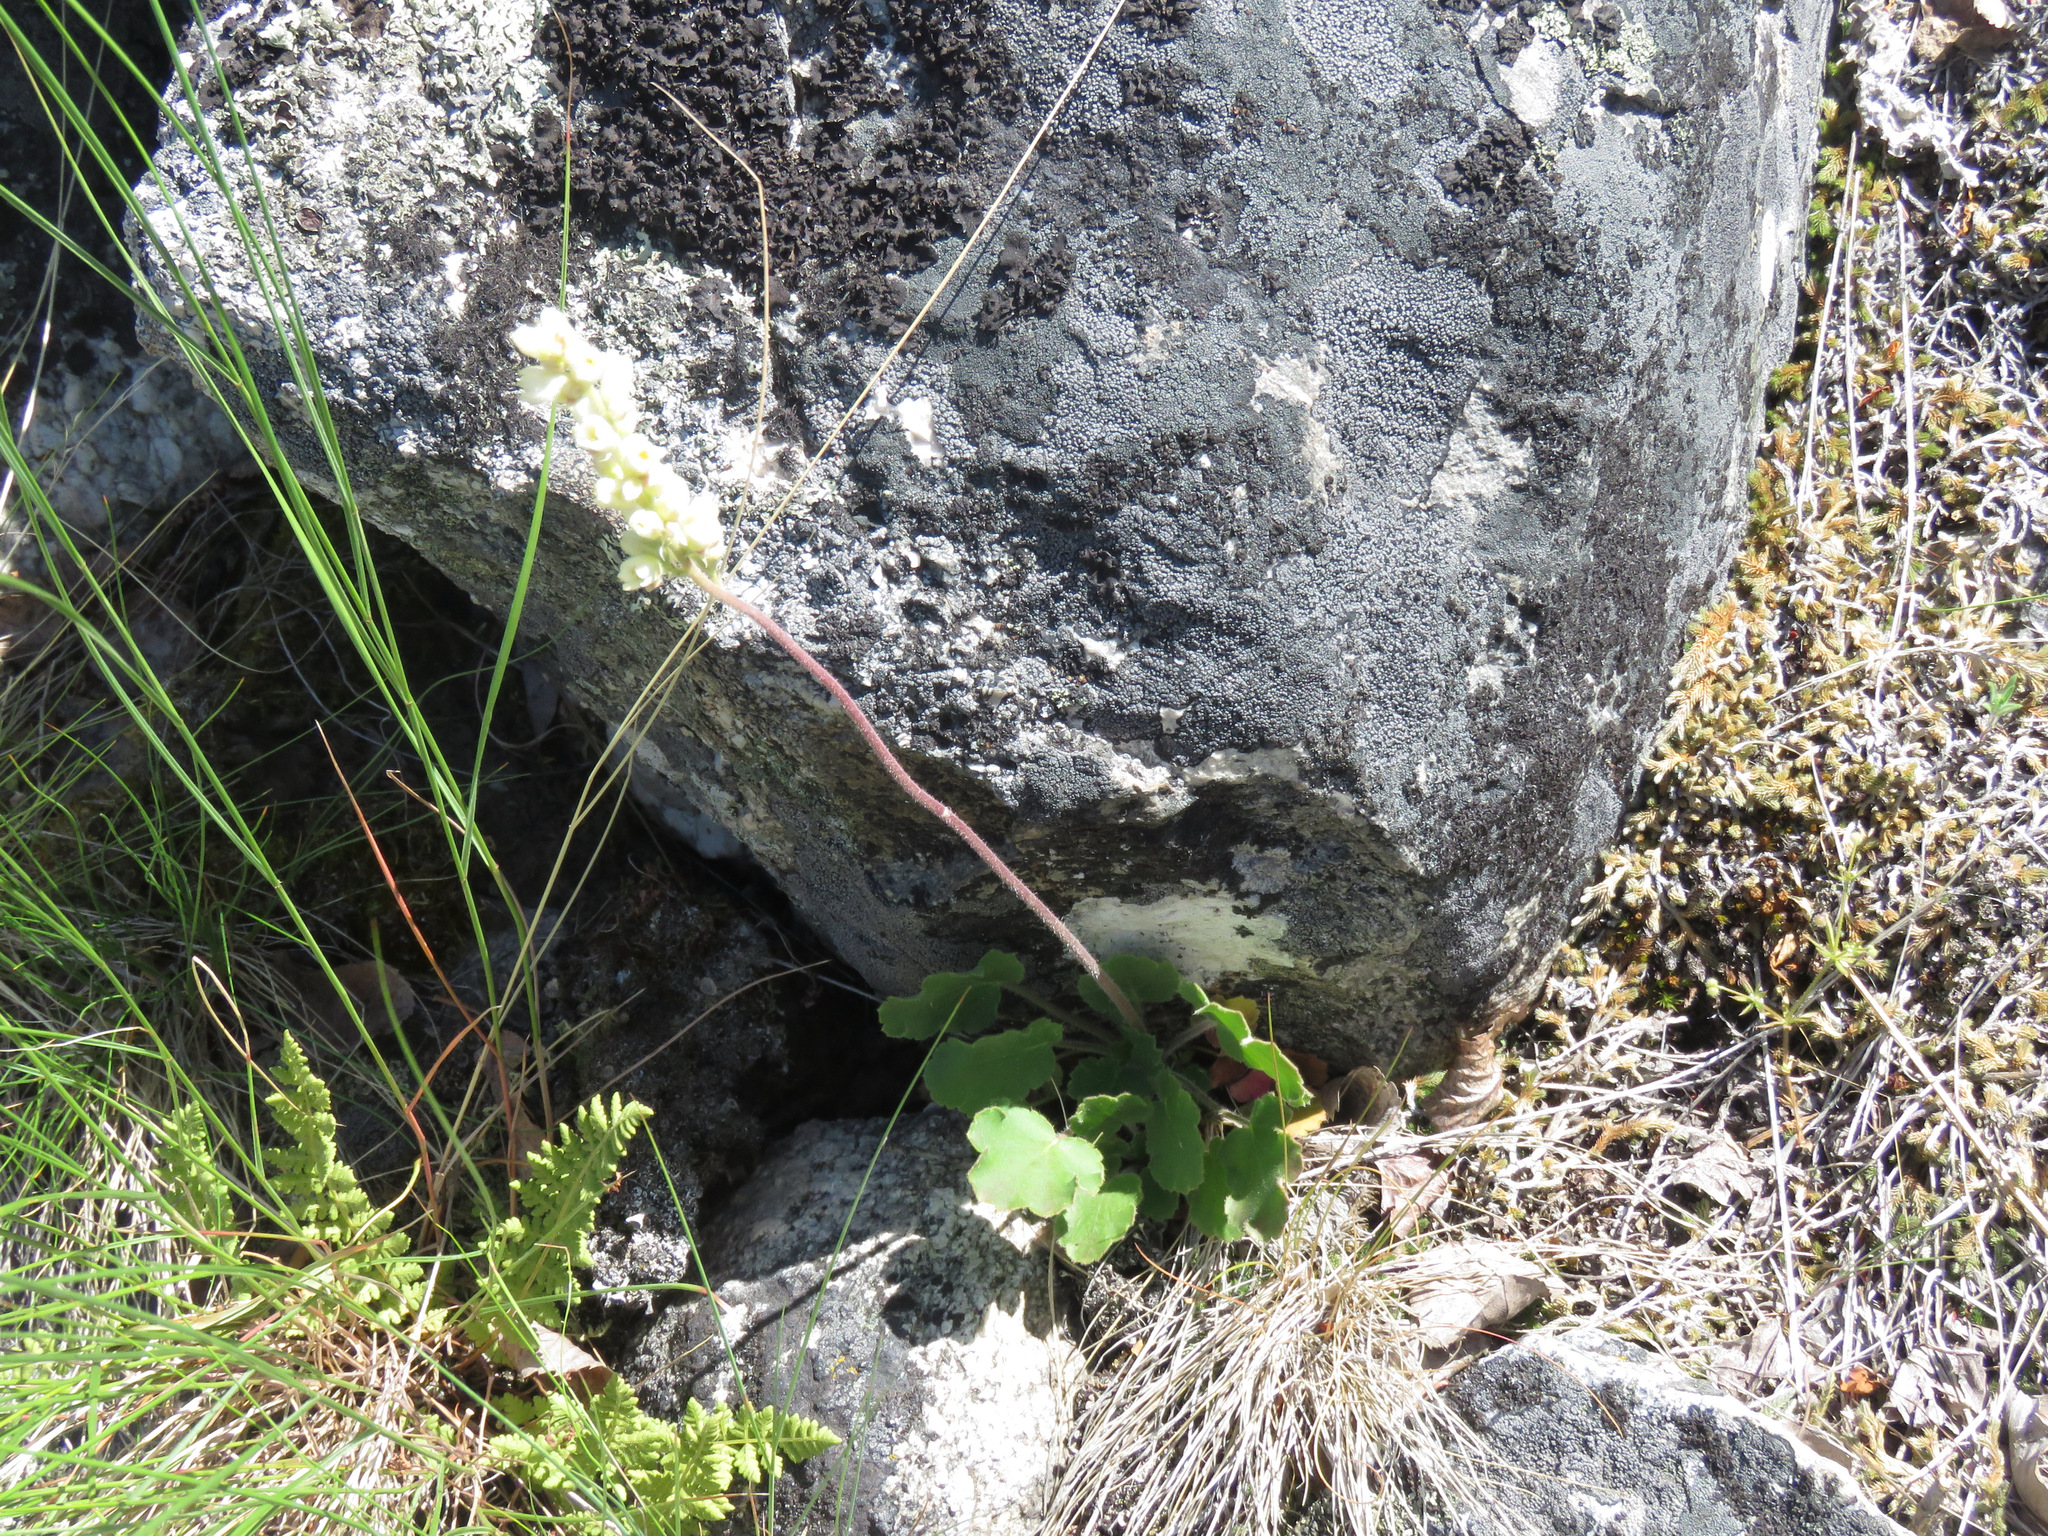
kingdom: Plantae
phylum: Tracheophyta
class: Magnoliopsida
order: Saxifragales
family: Saxifragaceae
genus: Heuchera
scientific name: Heuchera cylindrica
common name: Mat alumroot
